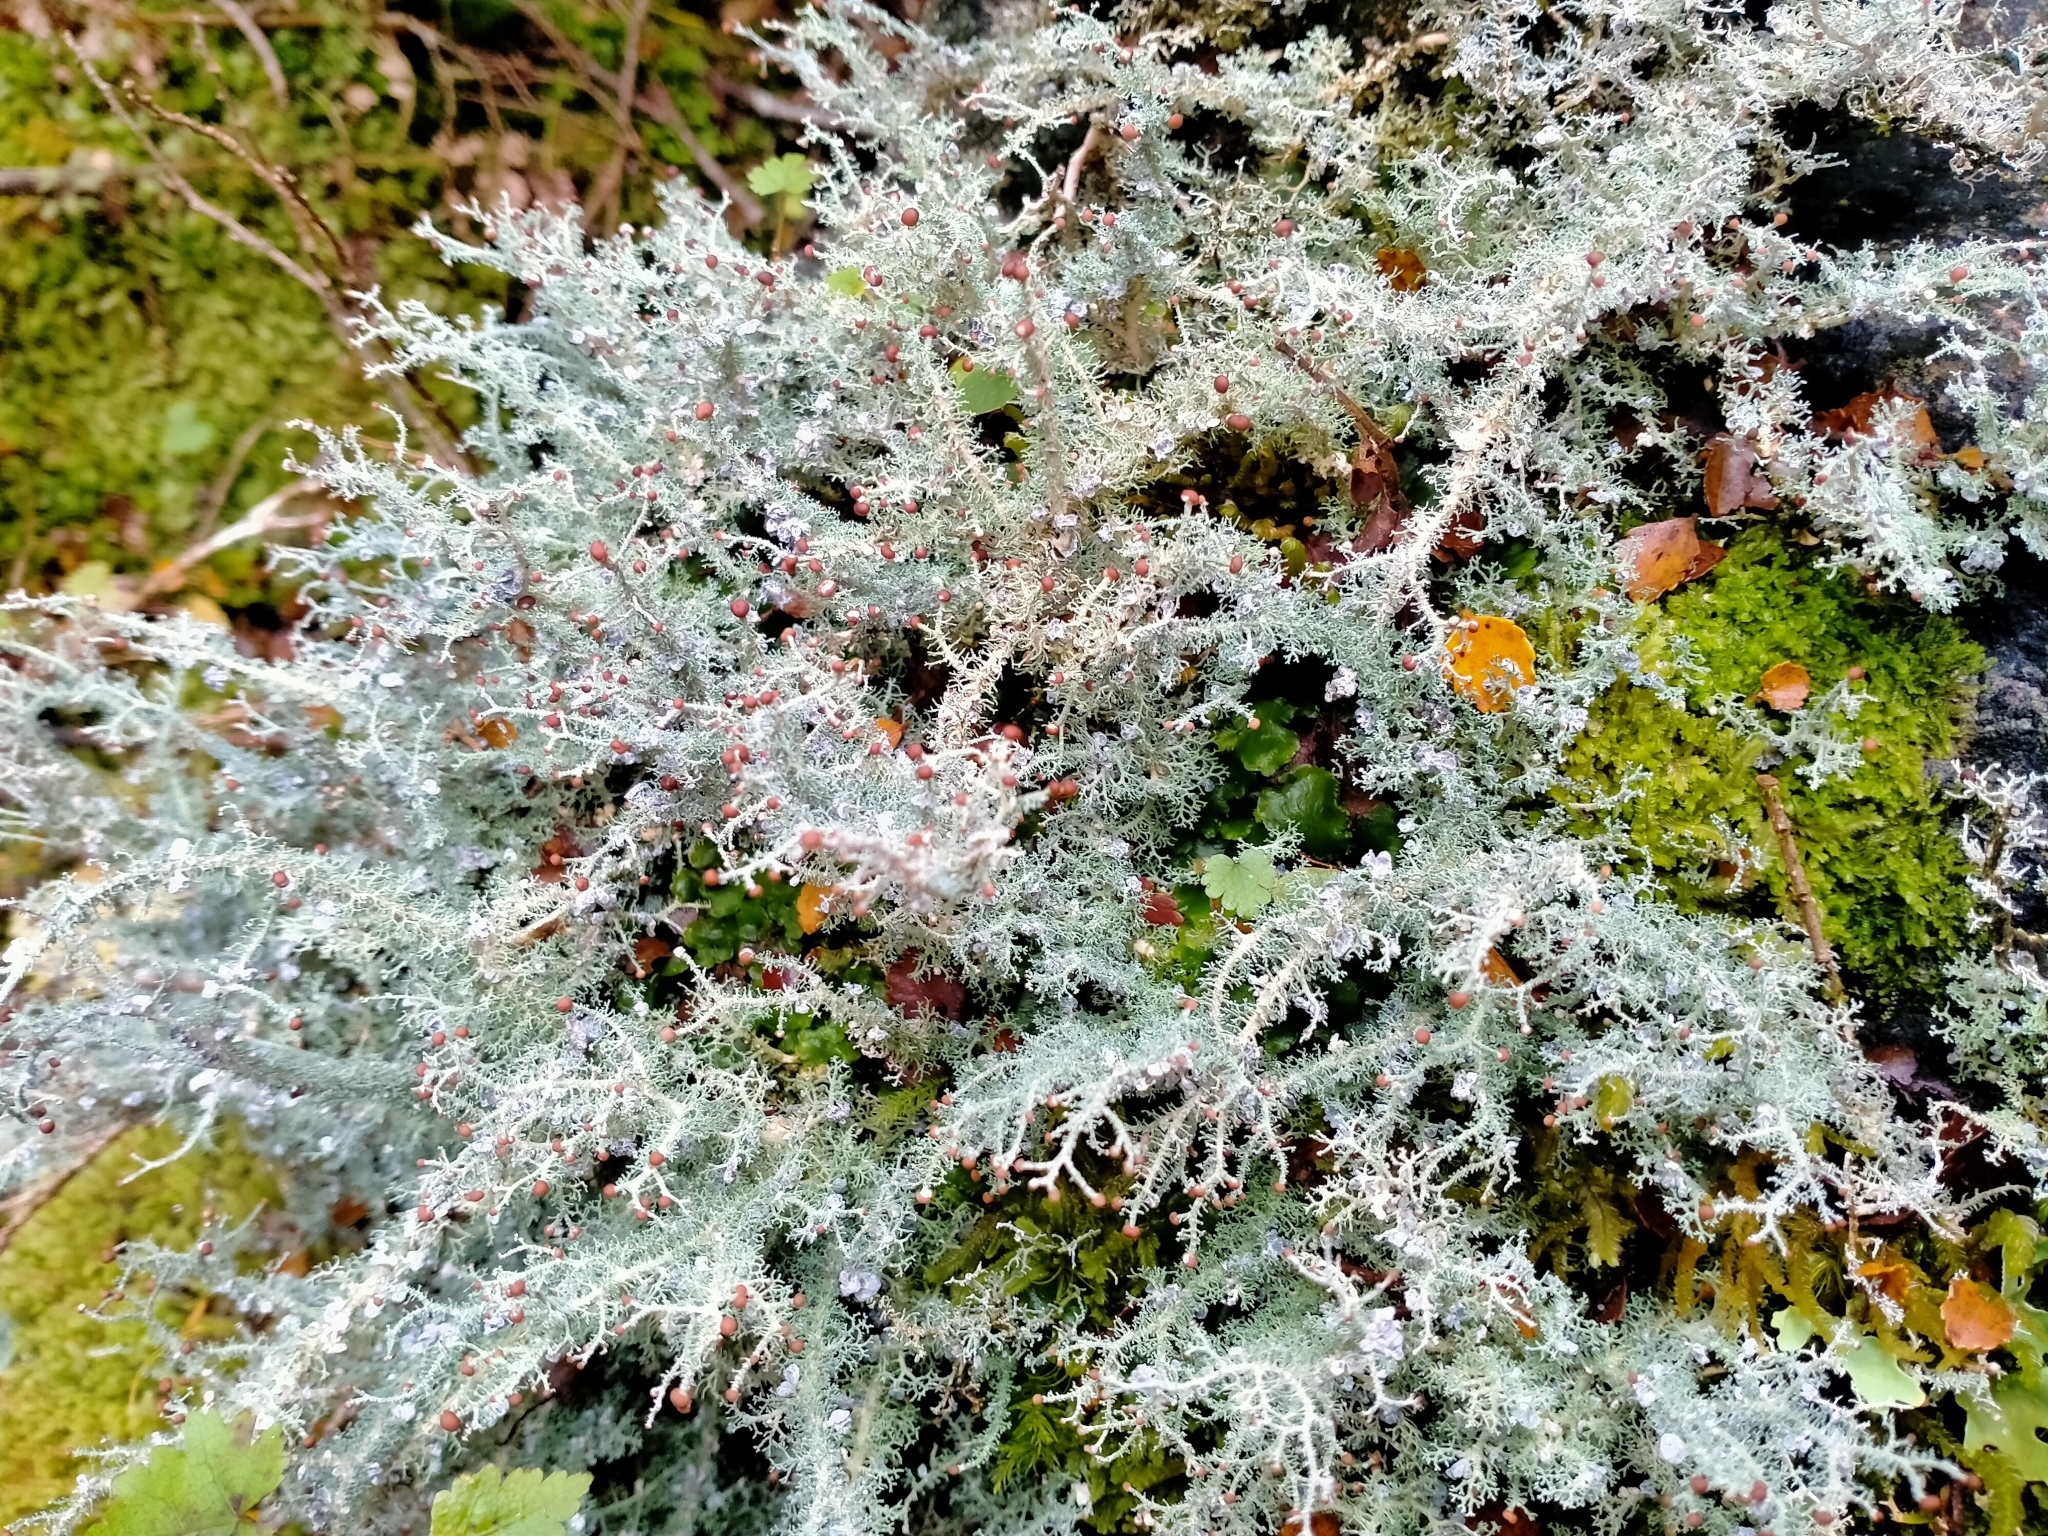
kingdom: Fungi
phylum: Ascomycota
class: Lecanoromycetes
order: Lecanorales
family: Stereocaulaceae
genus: Stereocaulon
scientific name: Stereocaulon ramulosum
